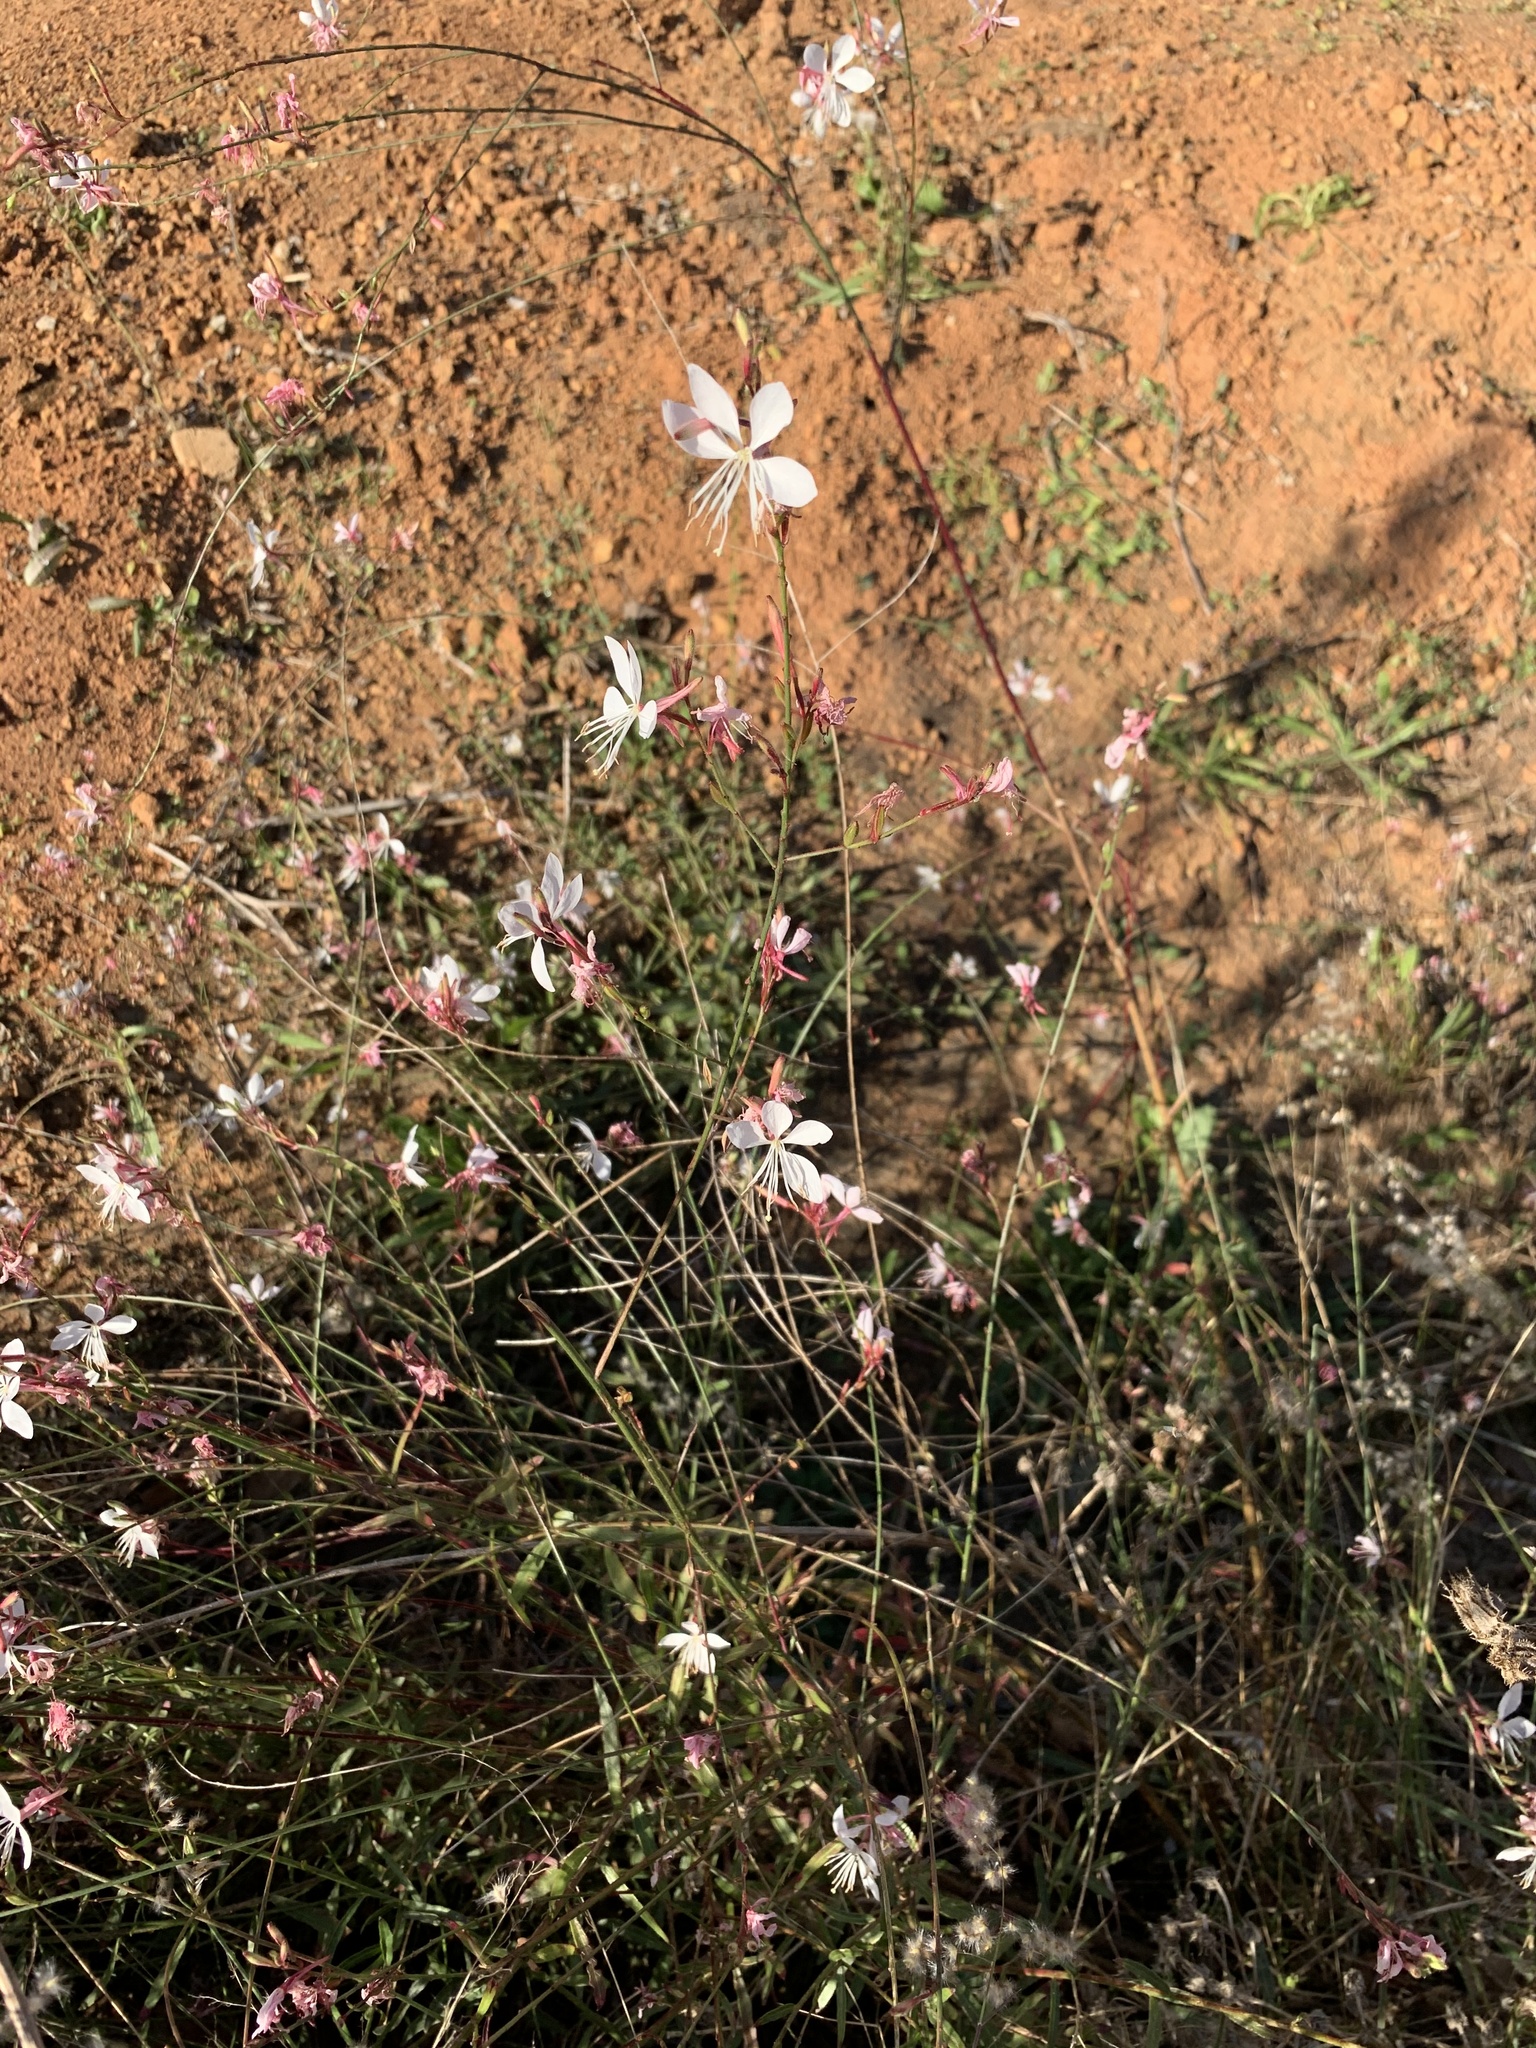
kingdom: Plantae
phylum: Tracheophyta
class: Magnoliopsida
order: Myrtales
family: Onagraceae
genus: Oenothera
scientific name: Oenothera lindheimeri
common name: Lindheimer's beeblossom
